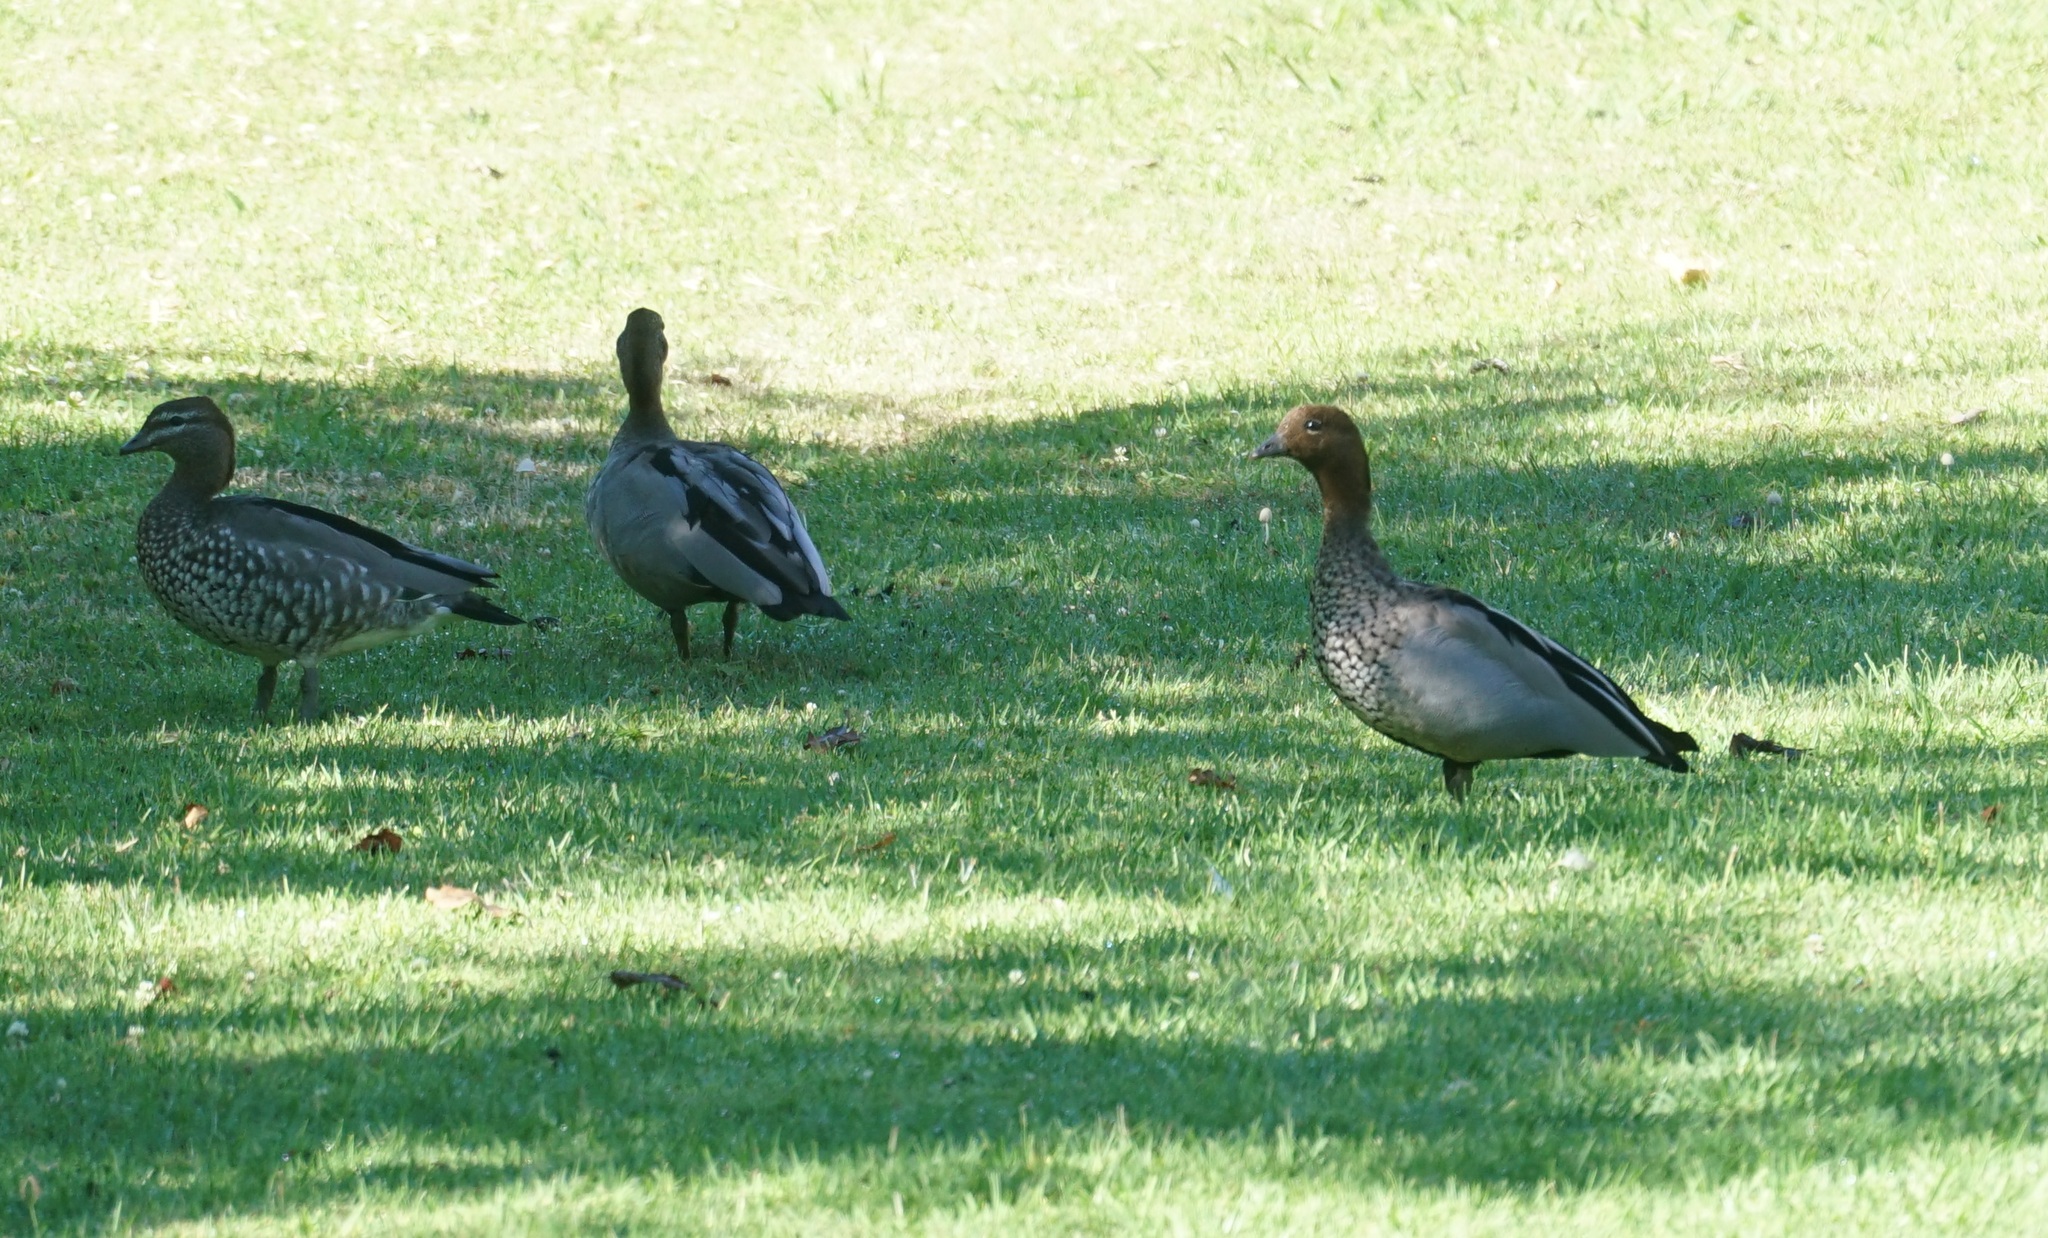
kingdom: Animalia
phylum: Chordata
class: Aves
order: Anseriformes
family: Anatidae
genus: Chenonetta
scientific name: Chenonetta jubata
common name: Maned duck
